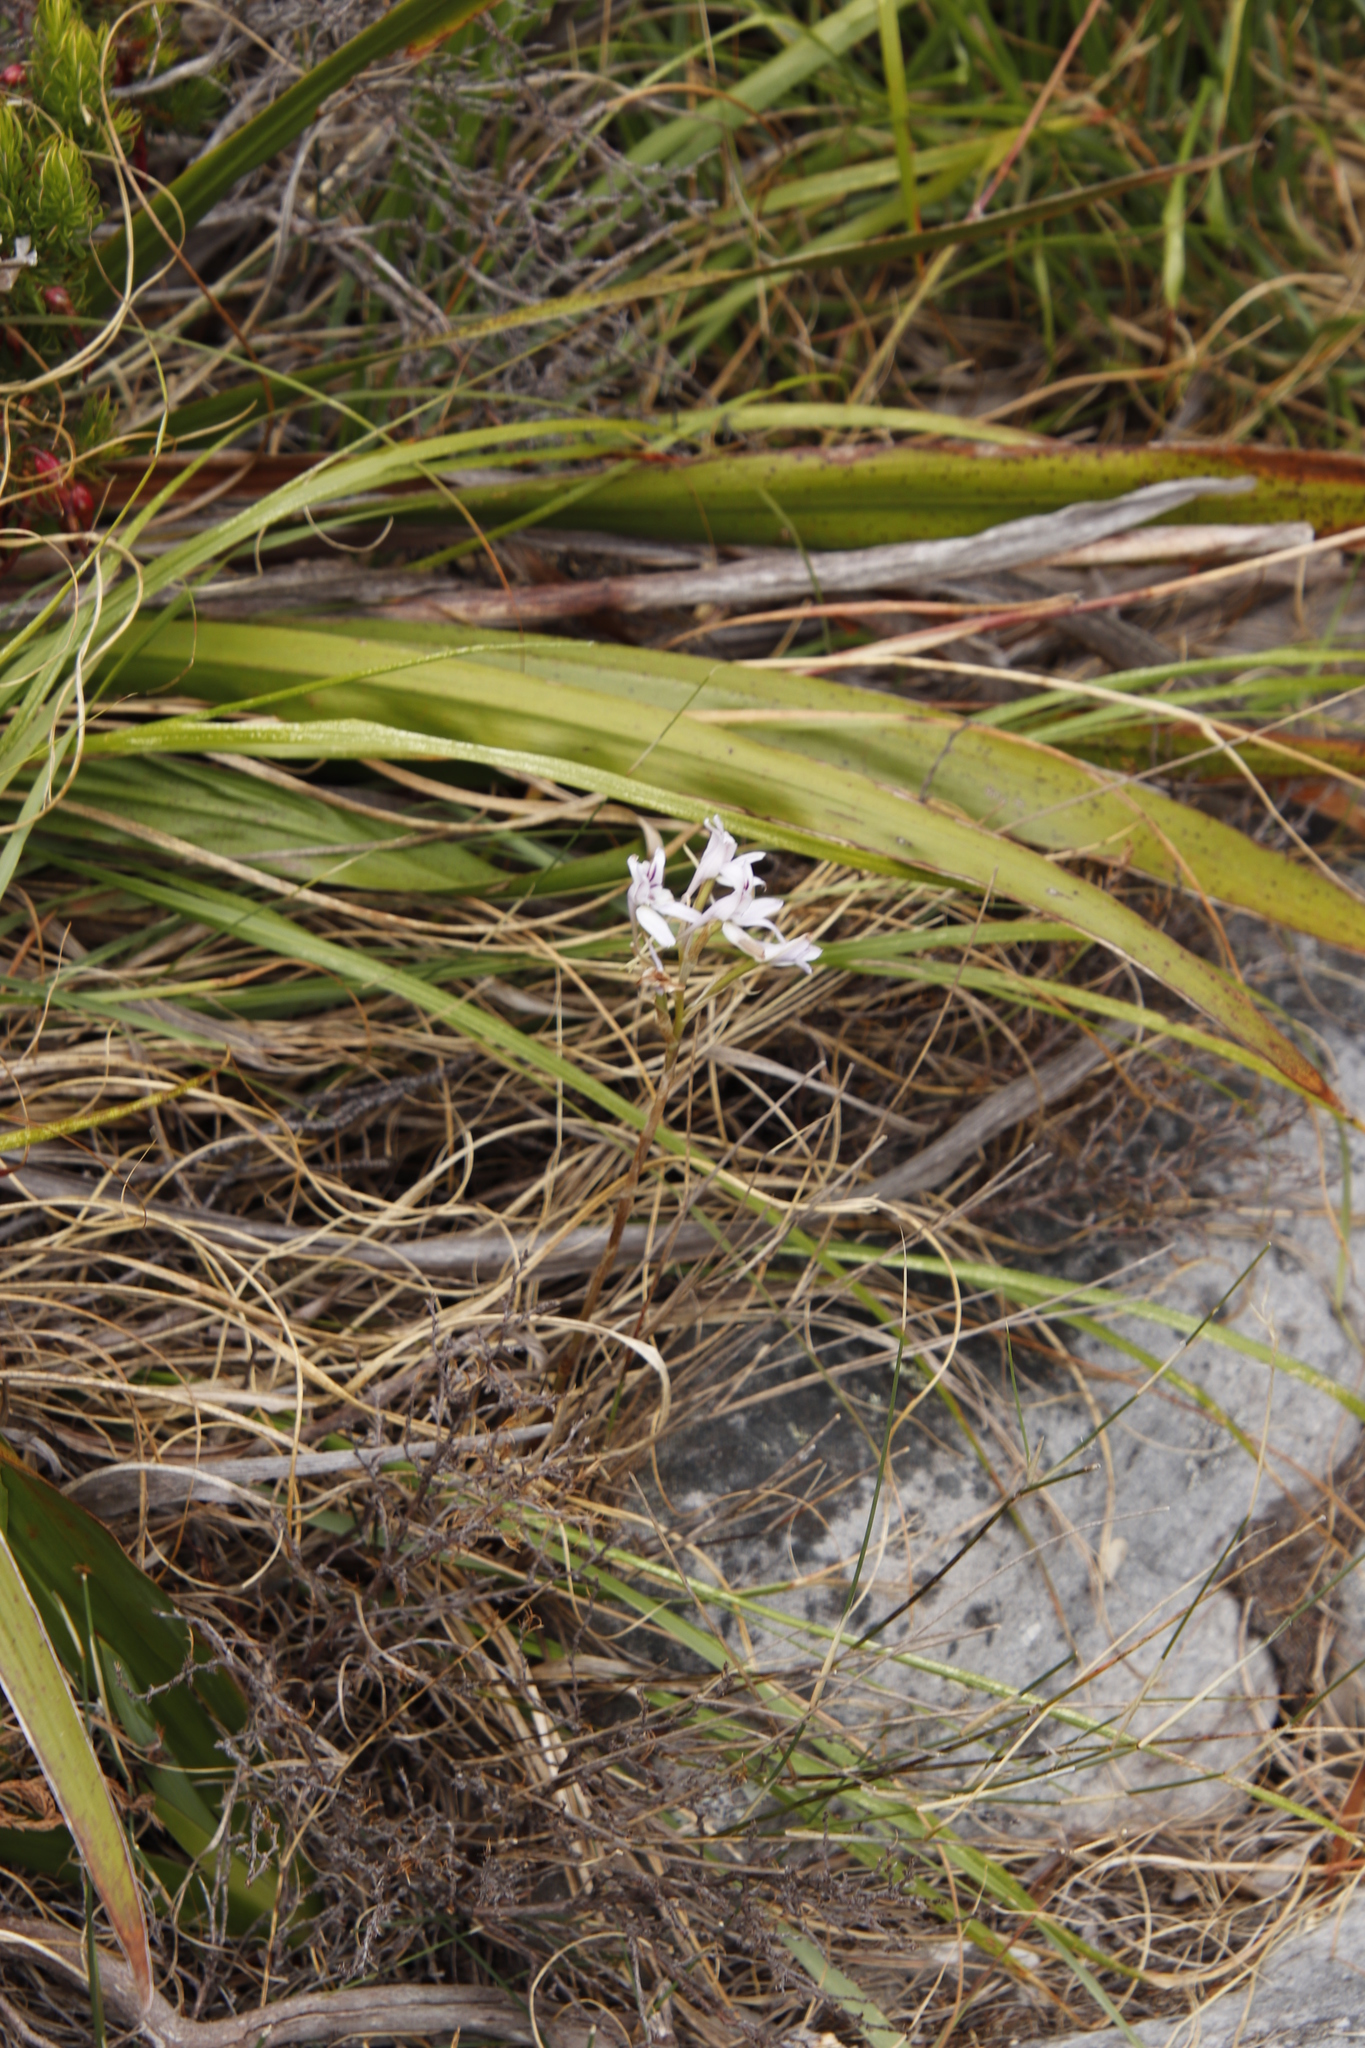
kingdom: Plantae
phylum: Tracheophyta
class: Liliopsida
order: Asparagales
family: Orchidaceae
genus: Disa
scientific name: Disa harveyana
